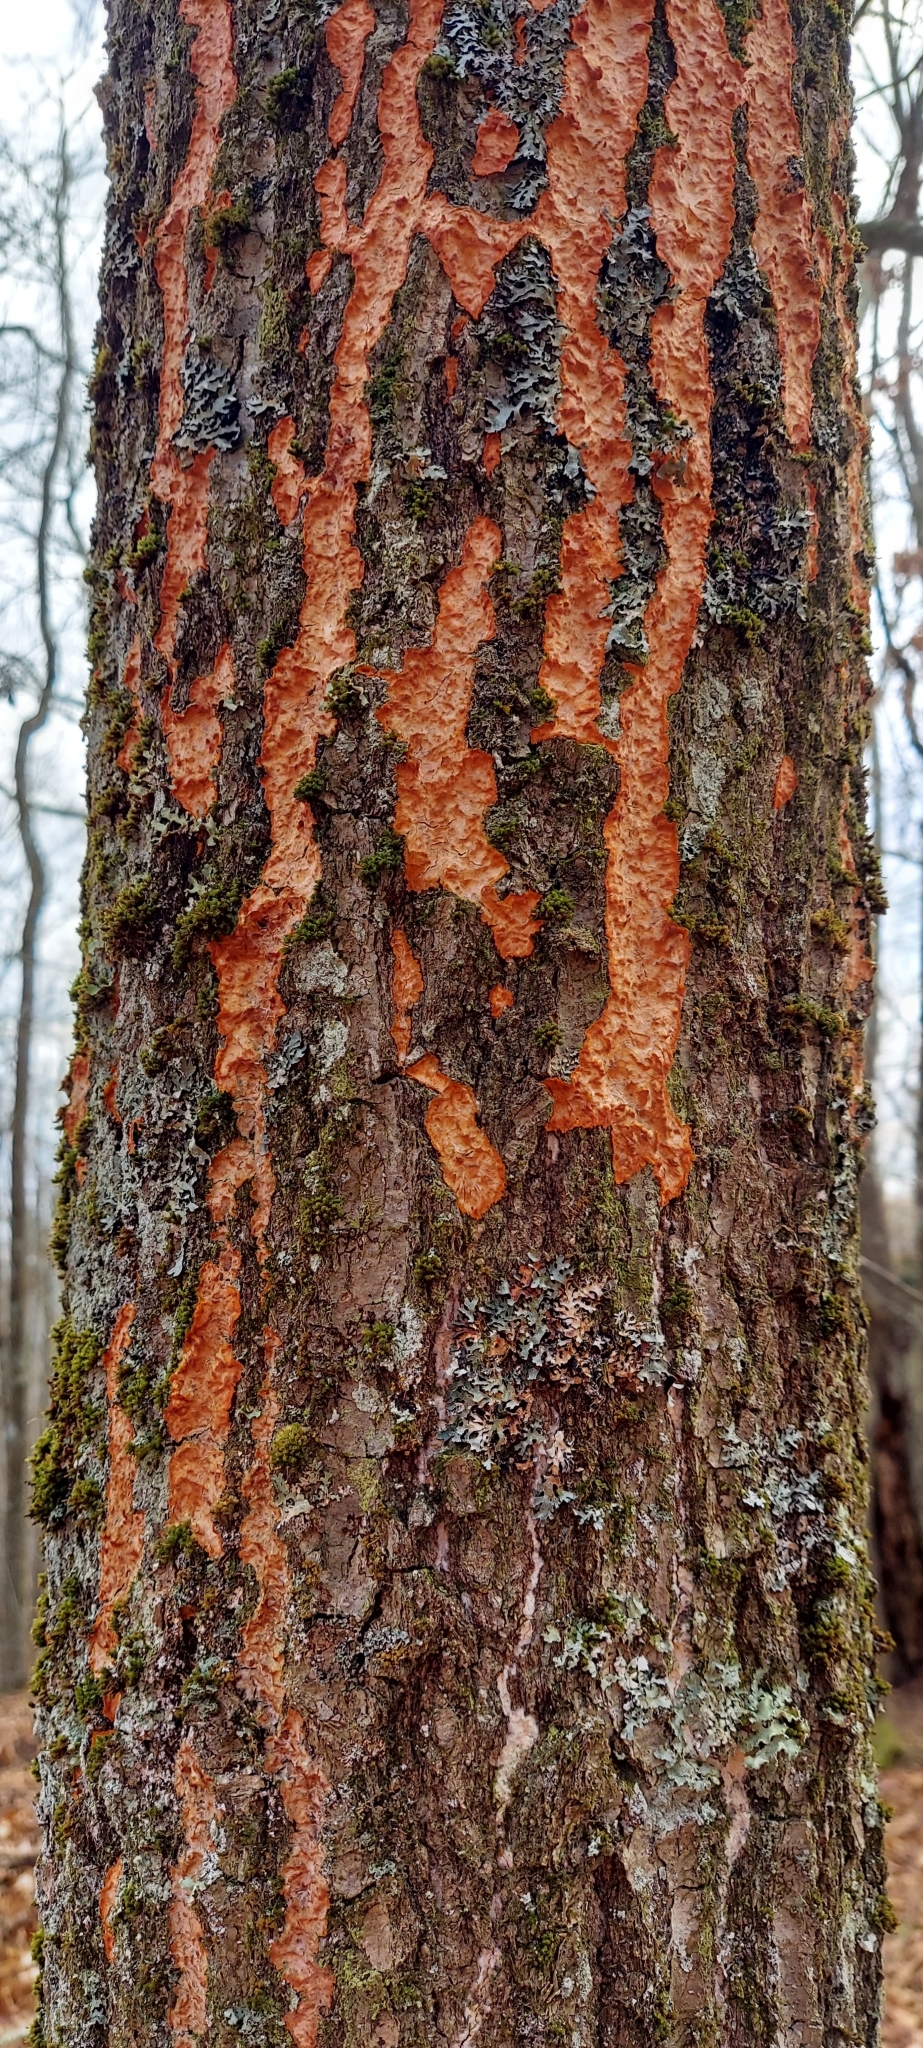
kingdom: Fungi
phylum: Basidiomycota
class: Agaricomycetes
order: Polyporales
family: Meruliaceae
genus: Phlebia
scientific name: Phlebia radiata
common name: Wrinkled crust
